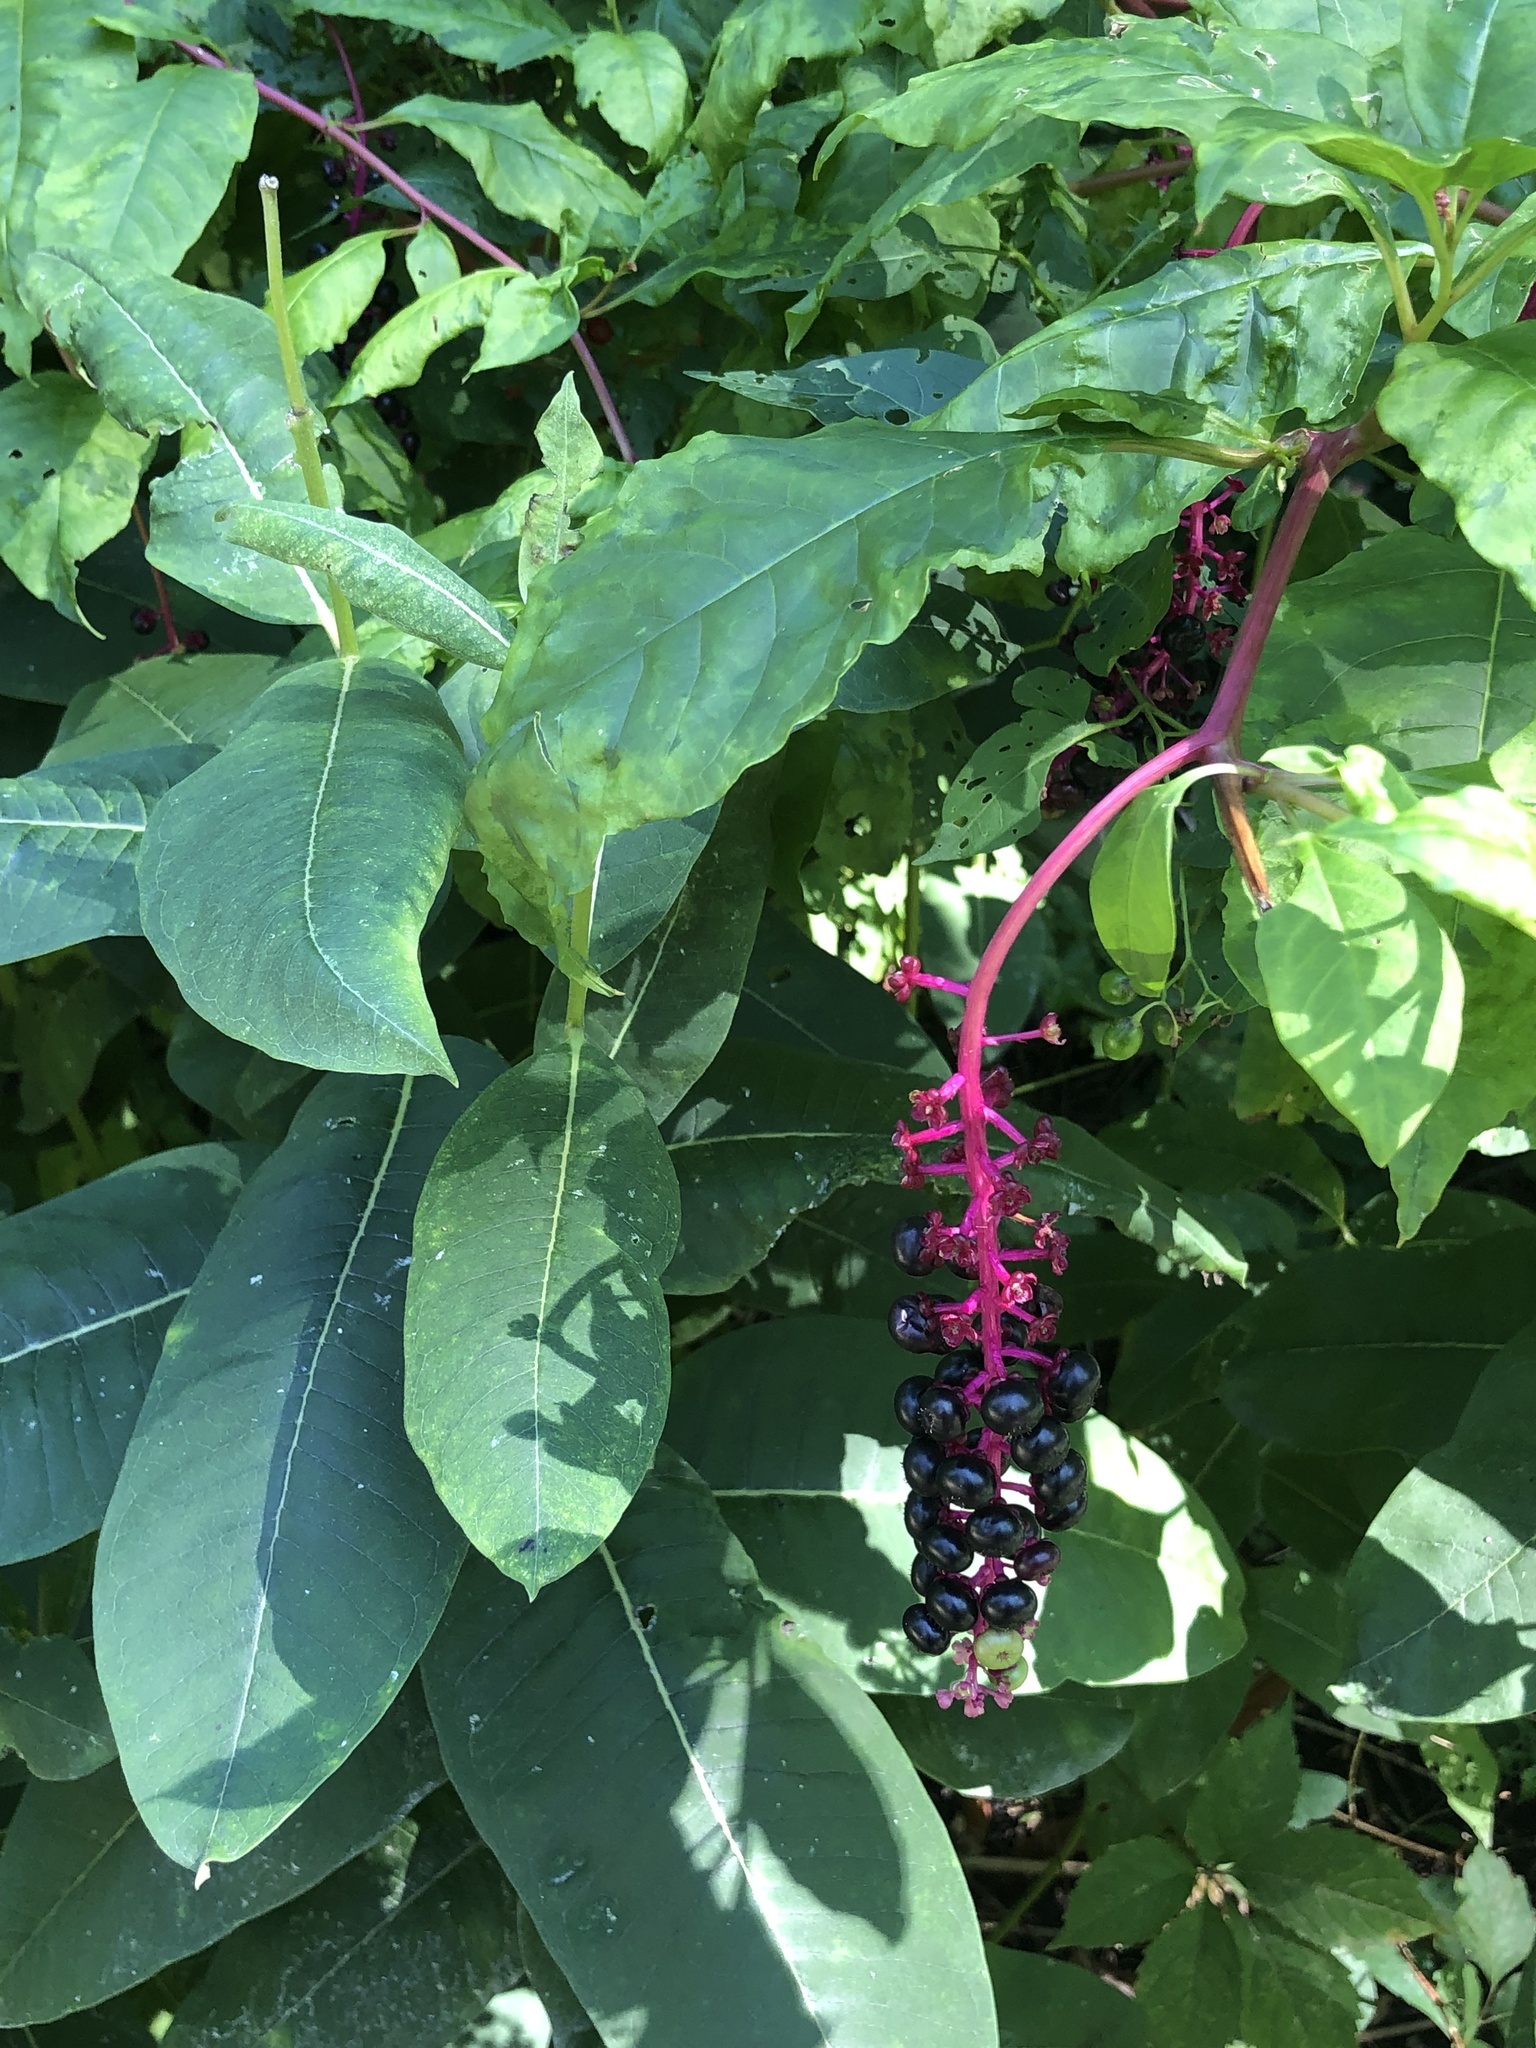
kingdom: Plantae
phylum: Tracheophyta
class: Magnoliopsida
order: Caryophyllales
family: Phytolaccaceae
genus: Phytolacca
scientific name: Phytolacca americana
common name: American pokeweed
